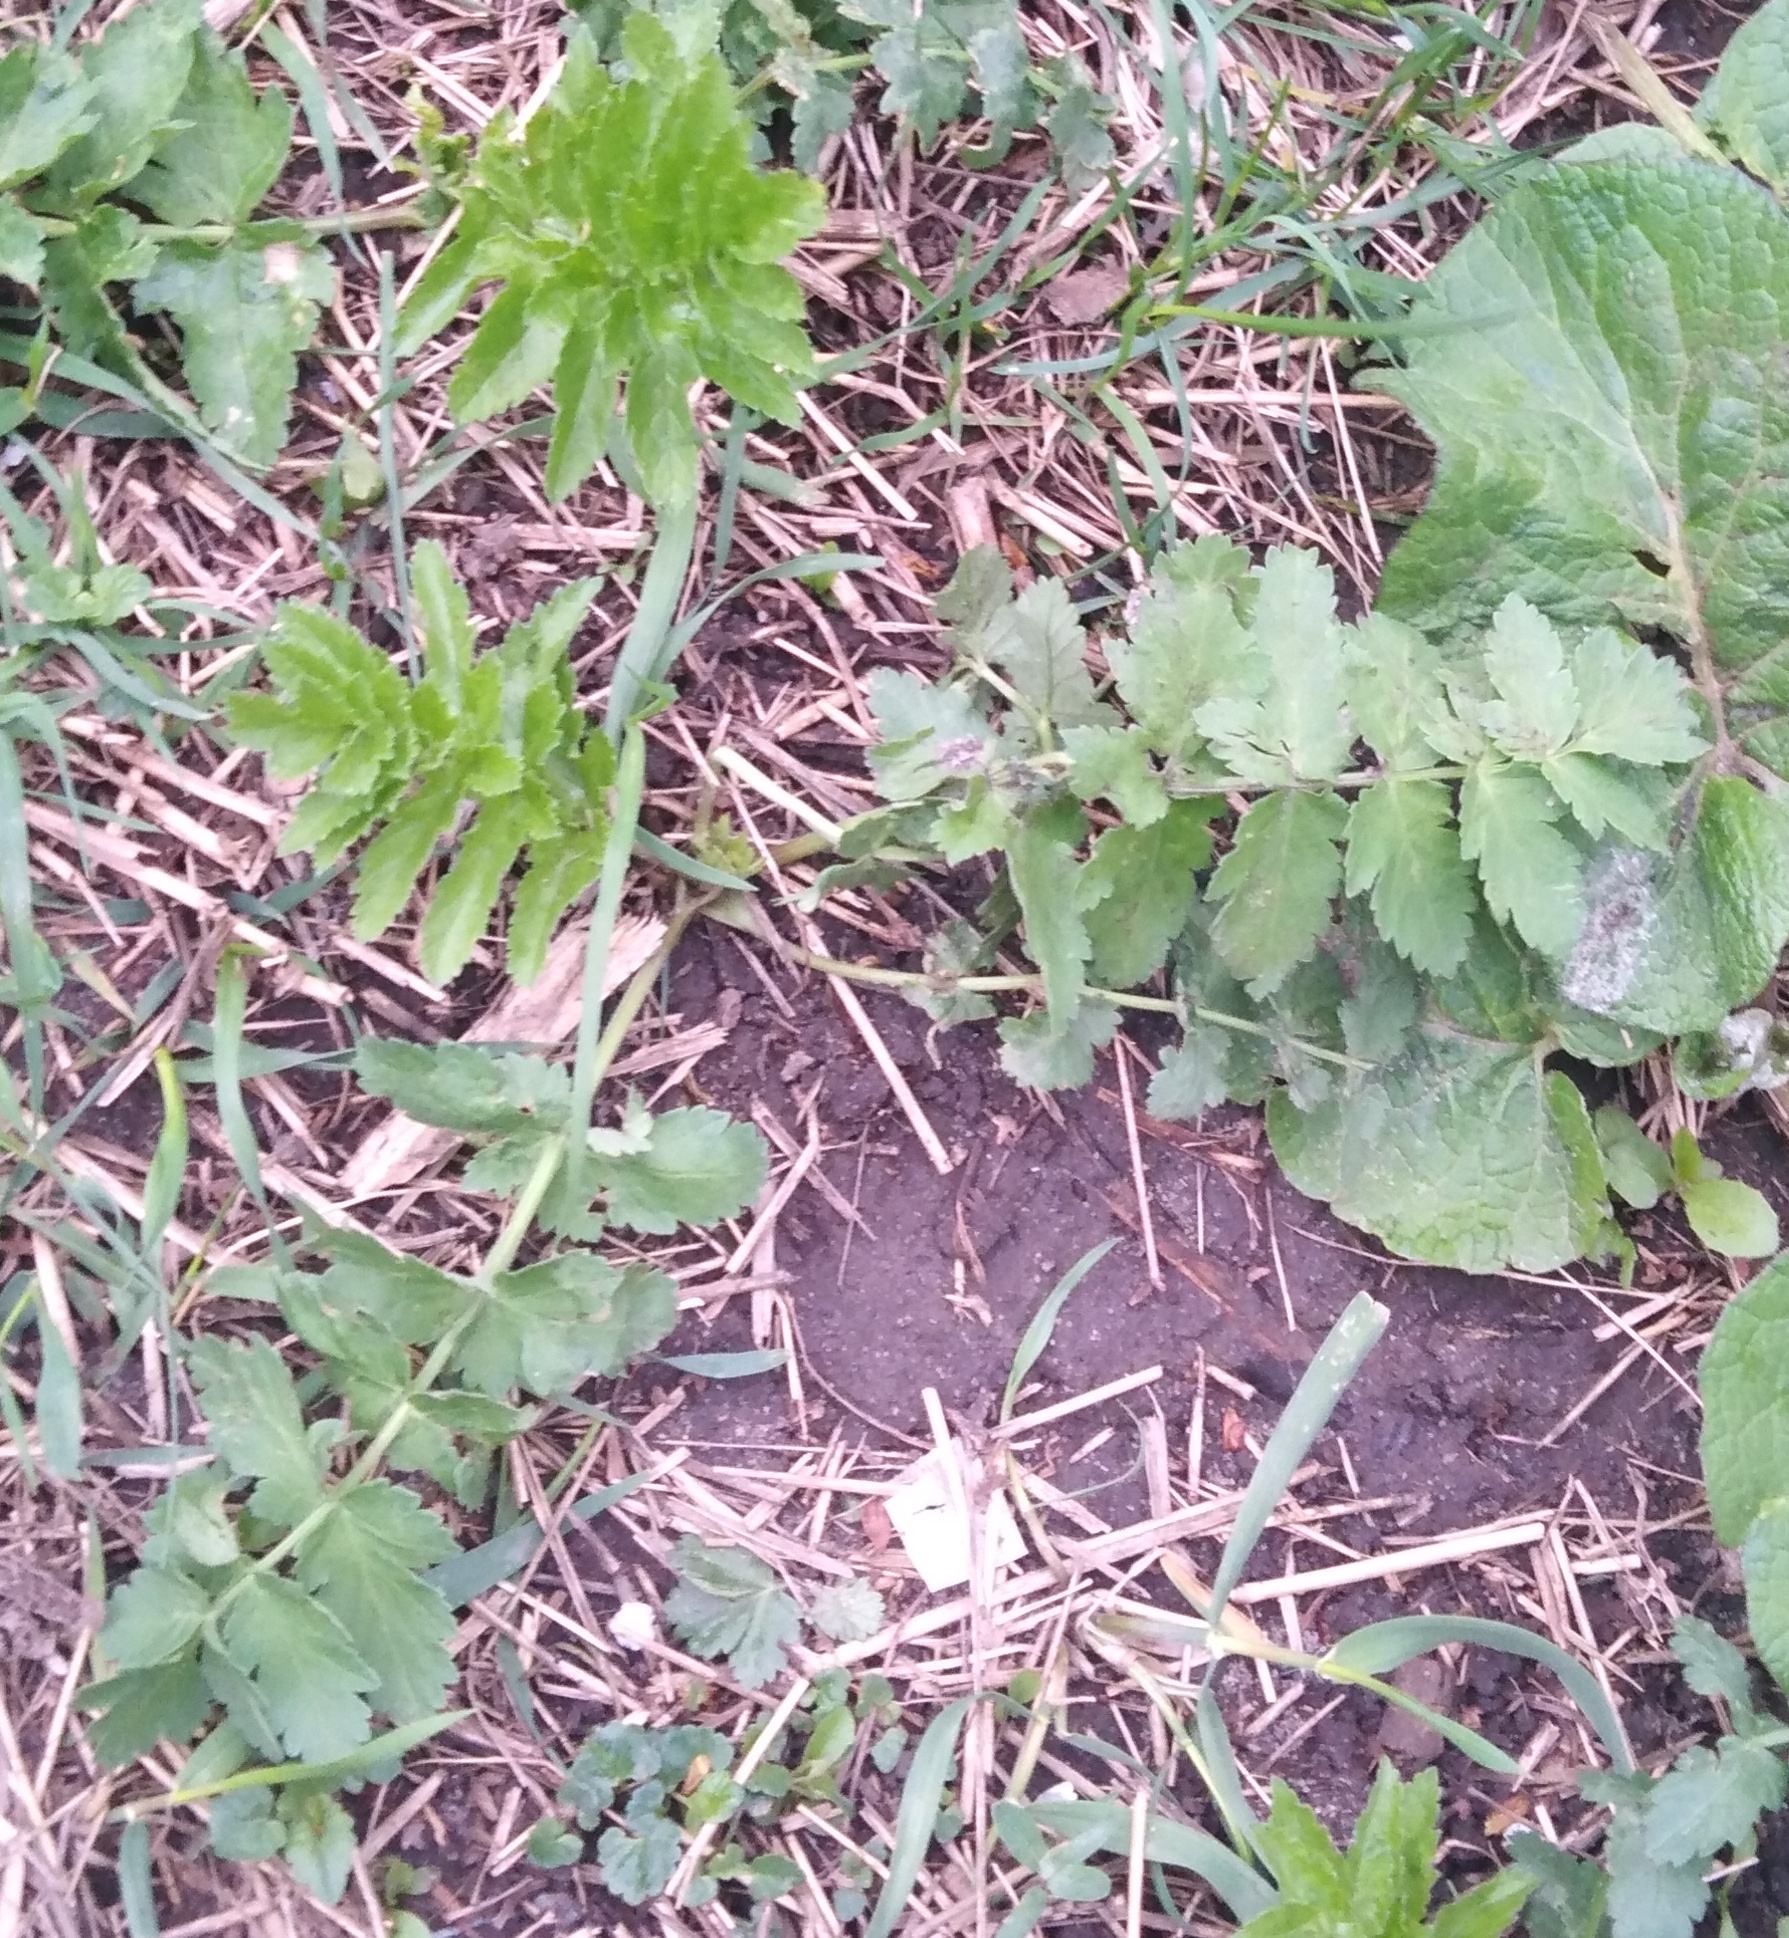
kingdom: Plantae
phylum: Tracheophyta
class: Magnoliopsida
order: Apiales
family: Apiaceae
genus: Pastinaca
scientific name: Pastinaca sativa
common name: Wild parsnip
